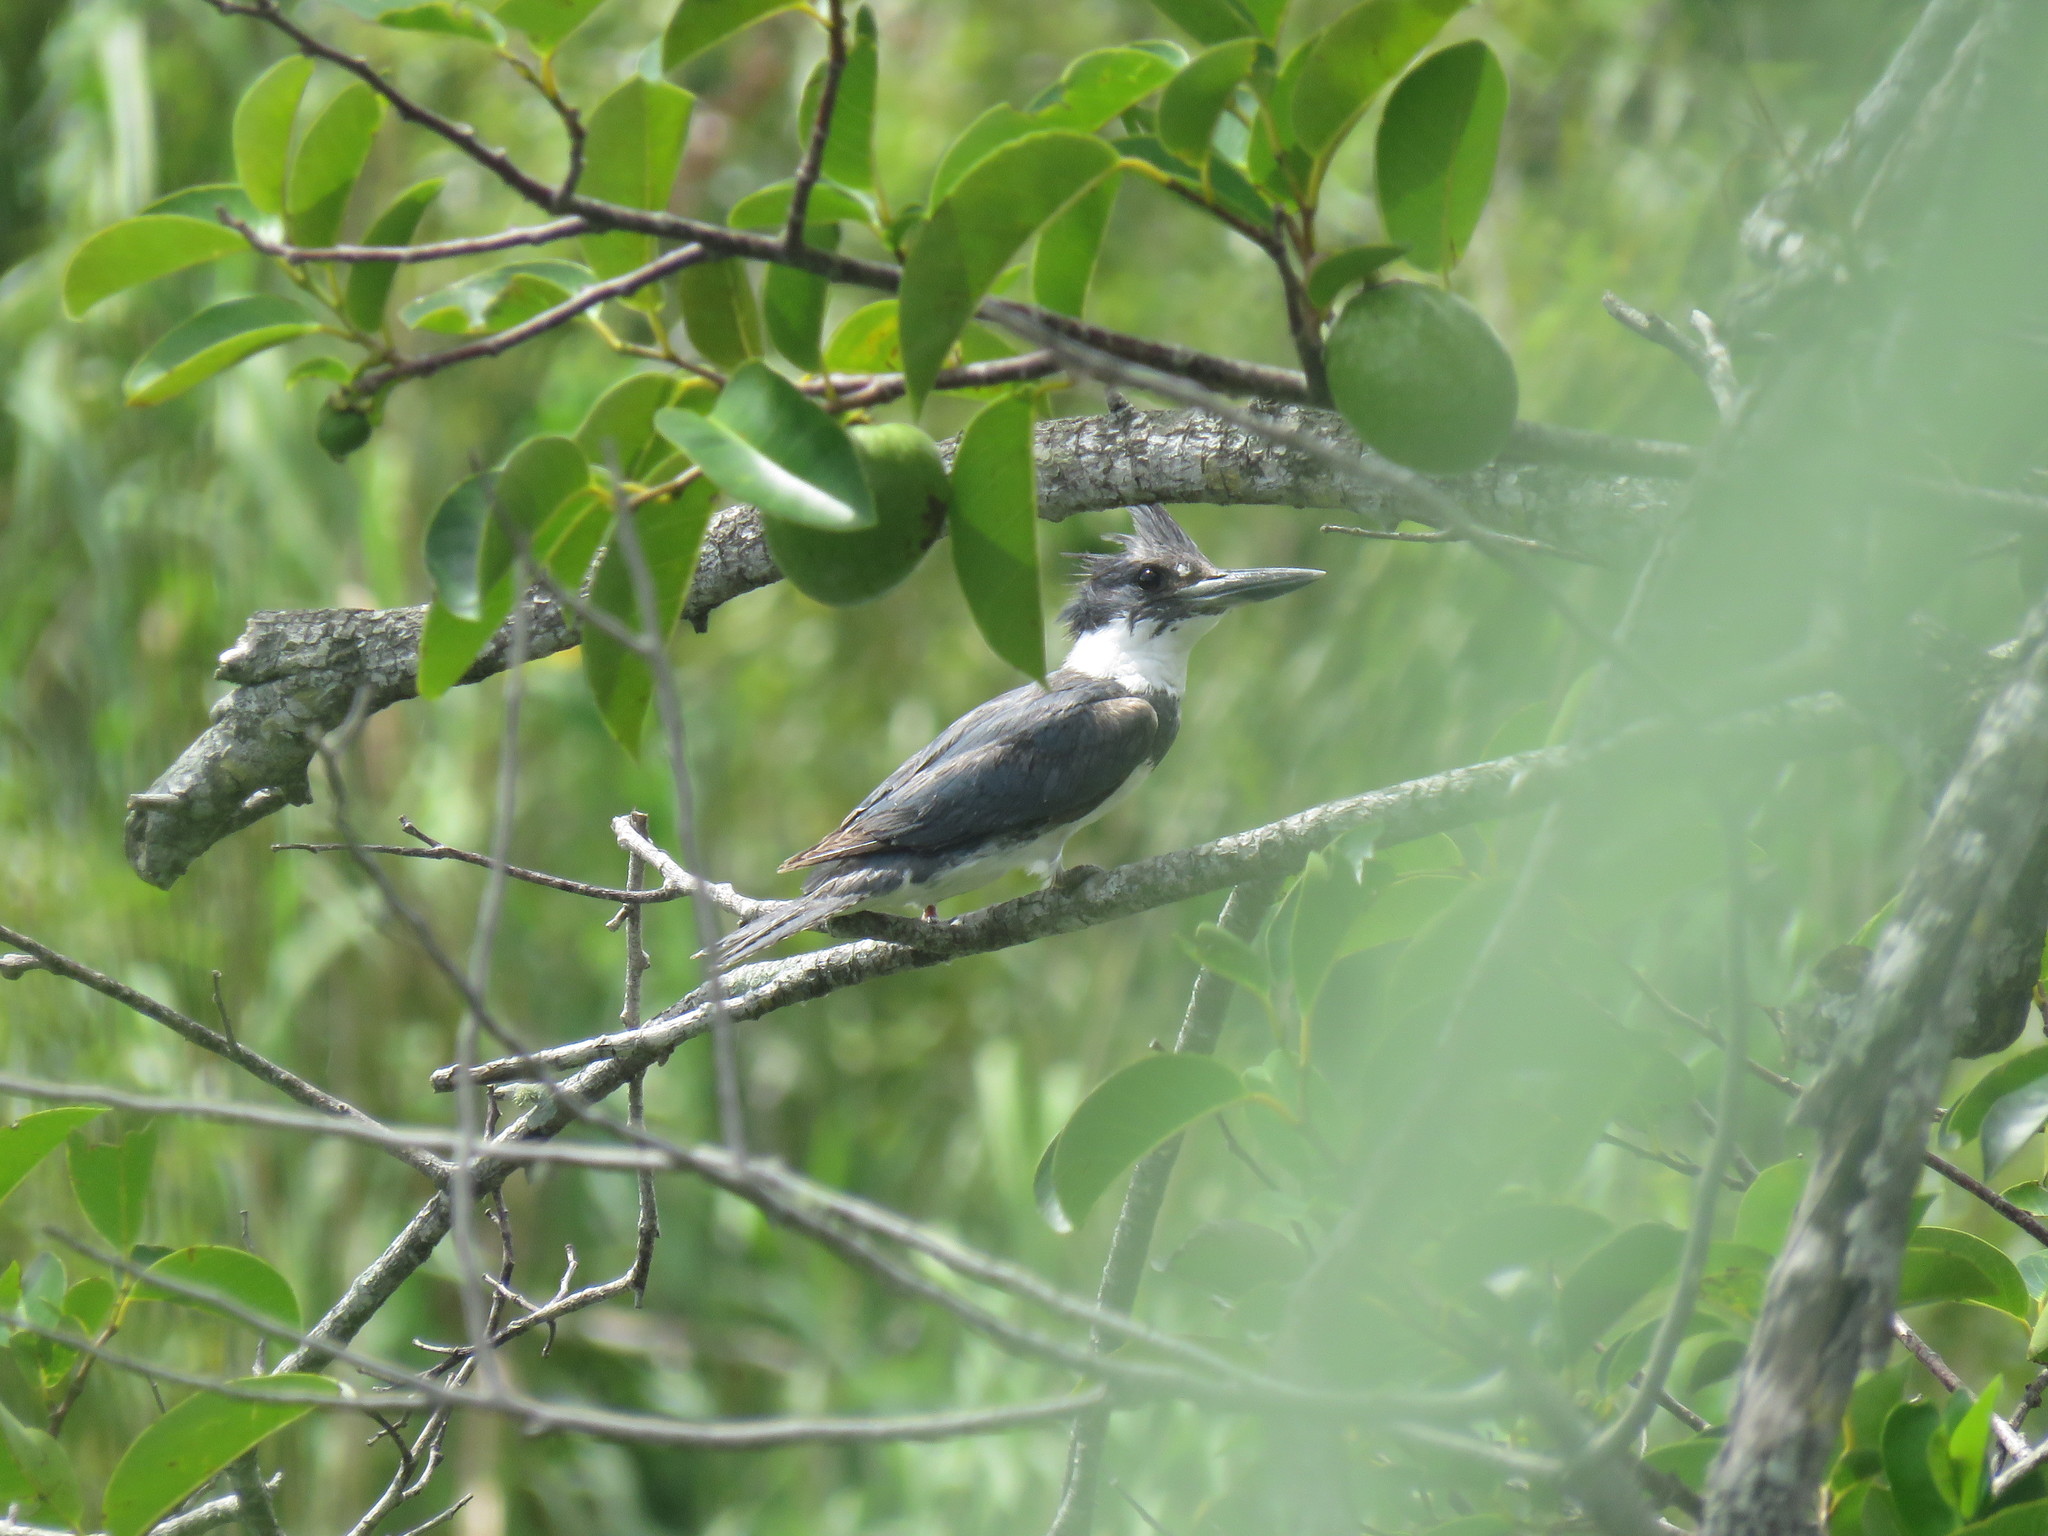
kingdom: Animalia
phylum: Chordata
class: Aves
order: Coraciiformes
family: Alcedinidae
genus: Megaceryle
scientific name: Megaceryle alcyon
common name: Belted kingfisher
